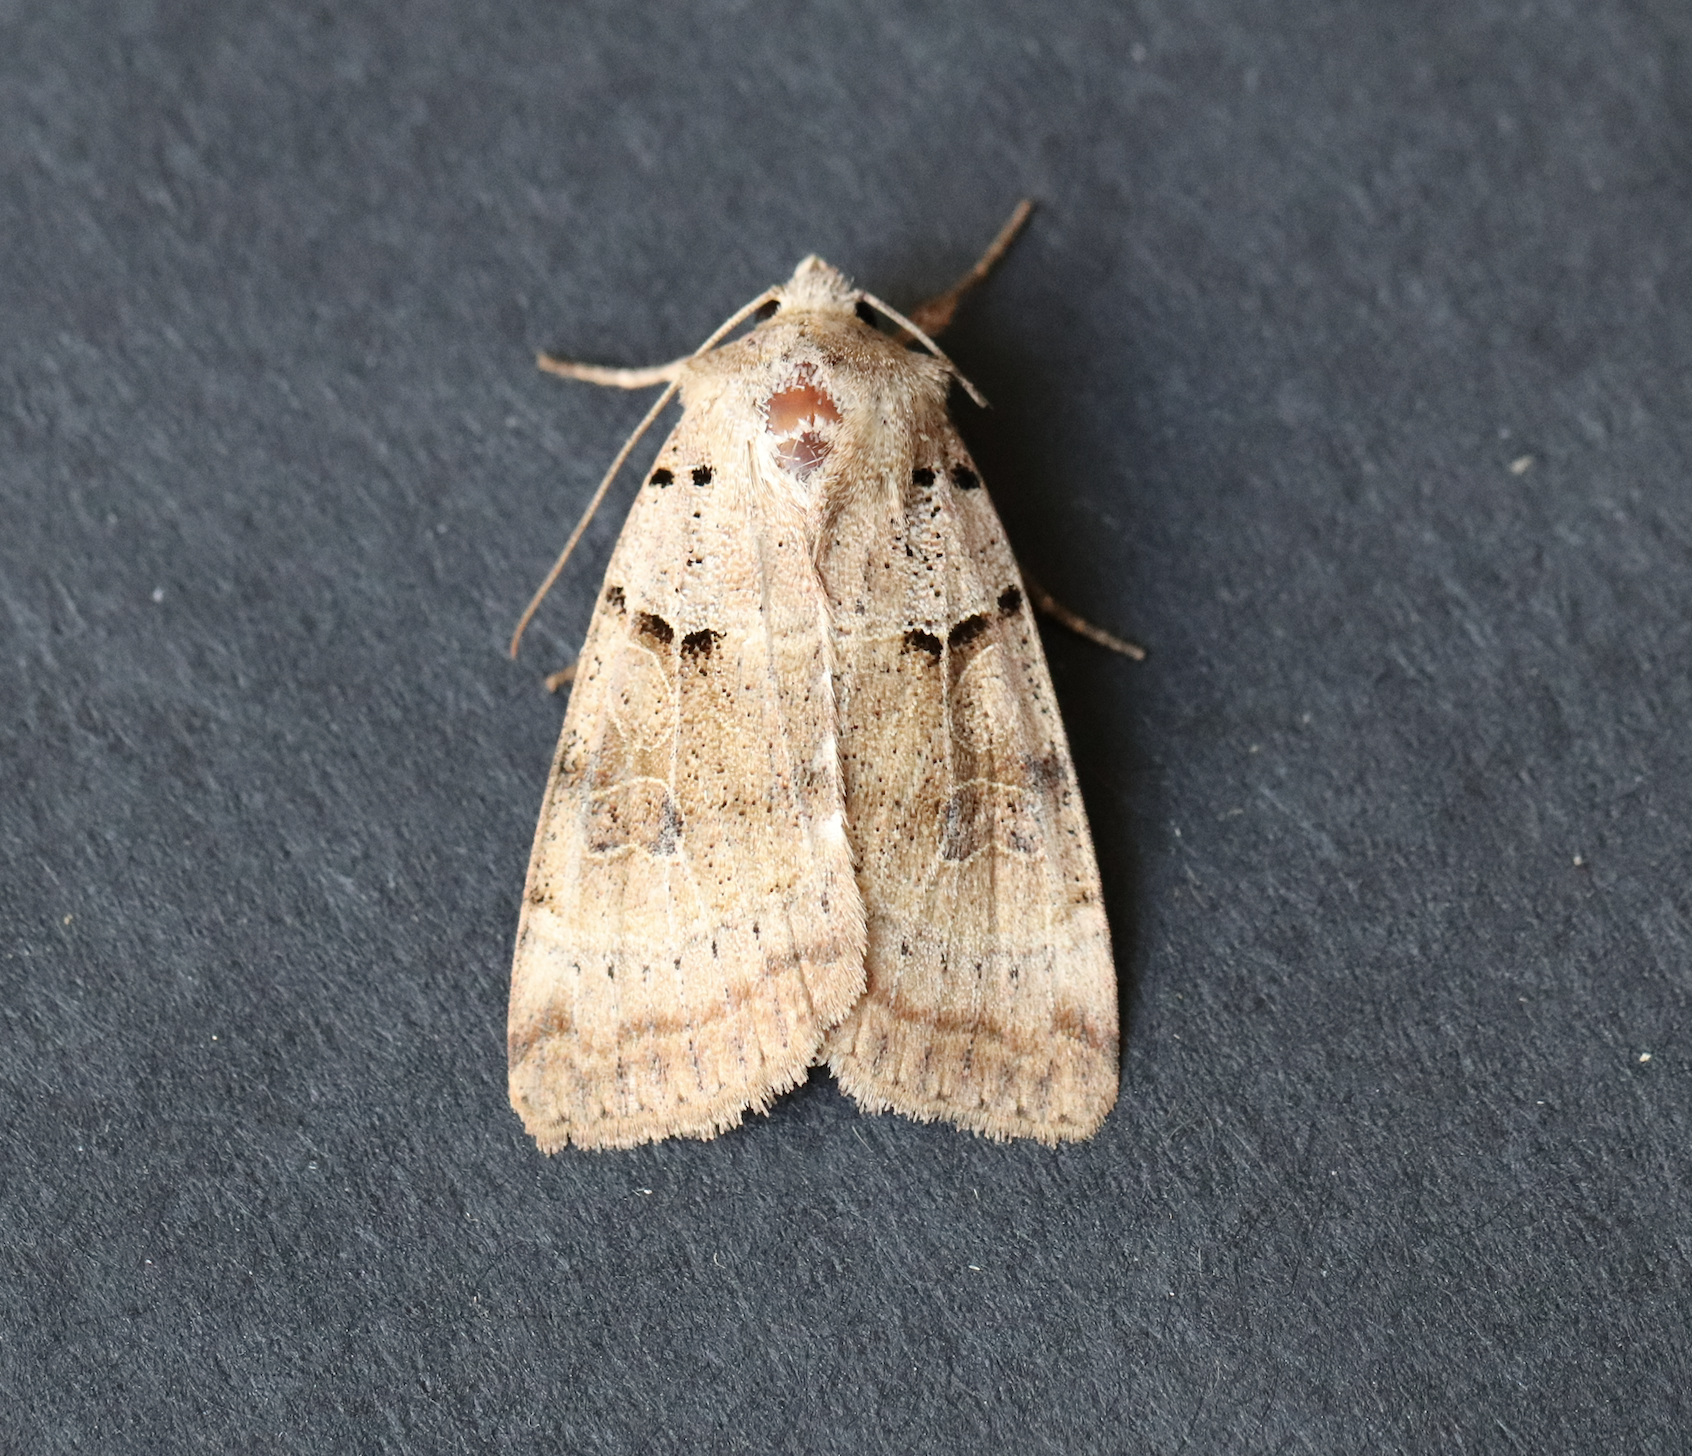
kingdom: Animalia
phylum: Arthropoda
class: Insecta
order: Lepidoptera
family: Noctuidae
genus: Eugnorisma
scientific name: Eugnorisma depuncta
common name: Plain clay
